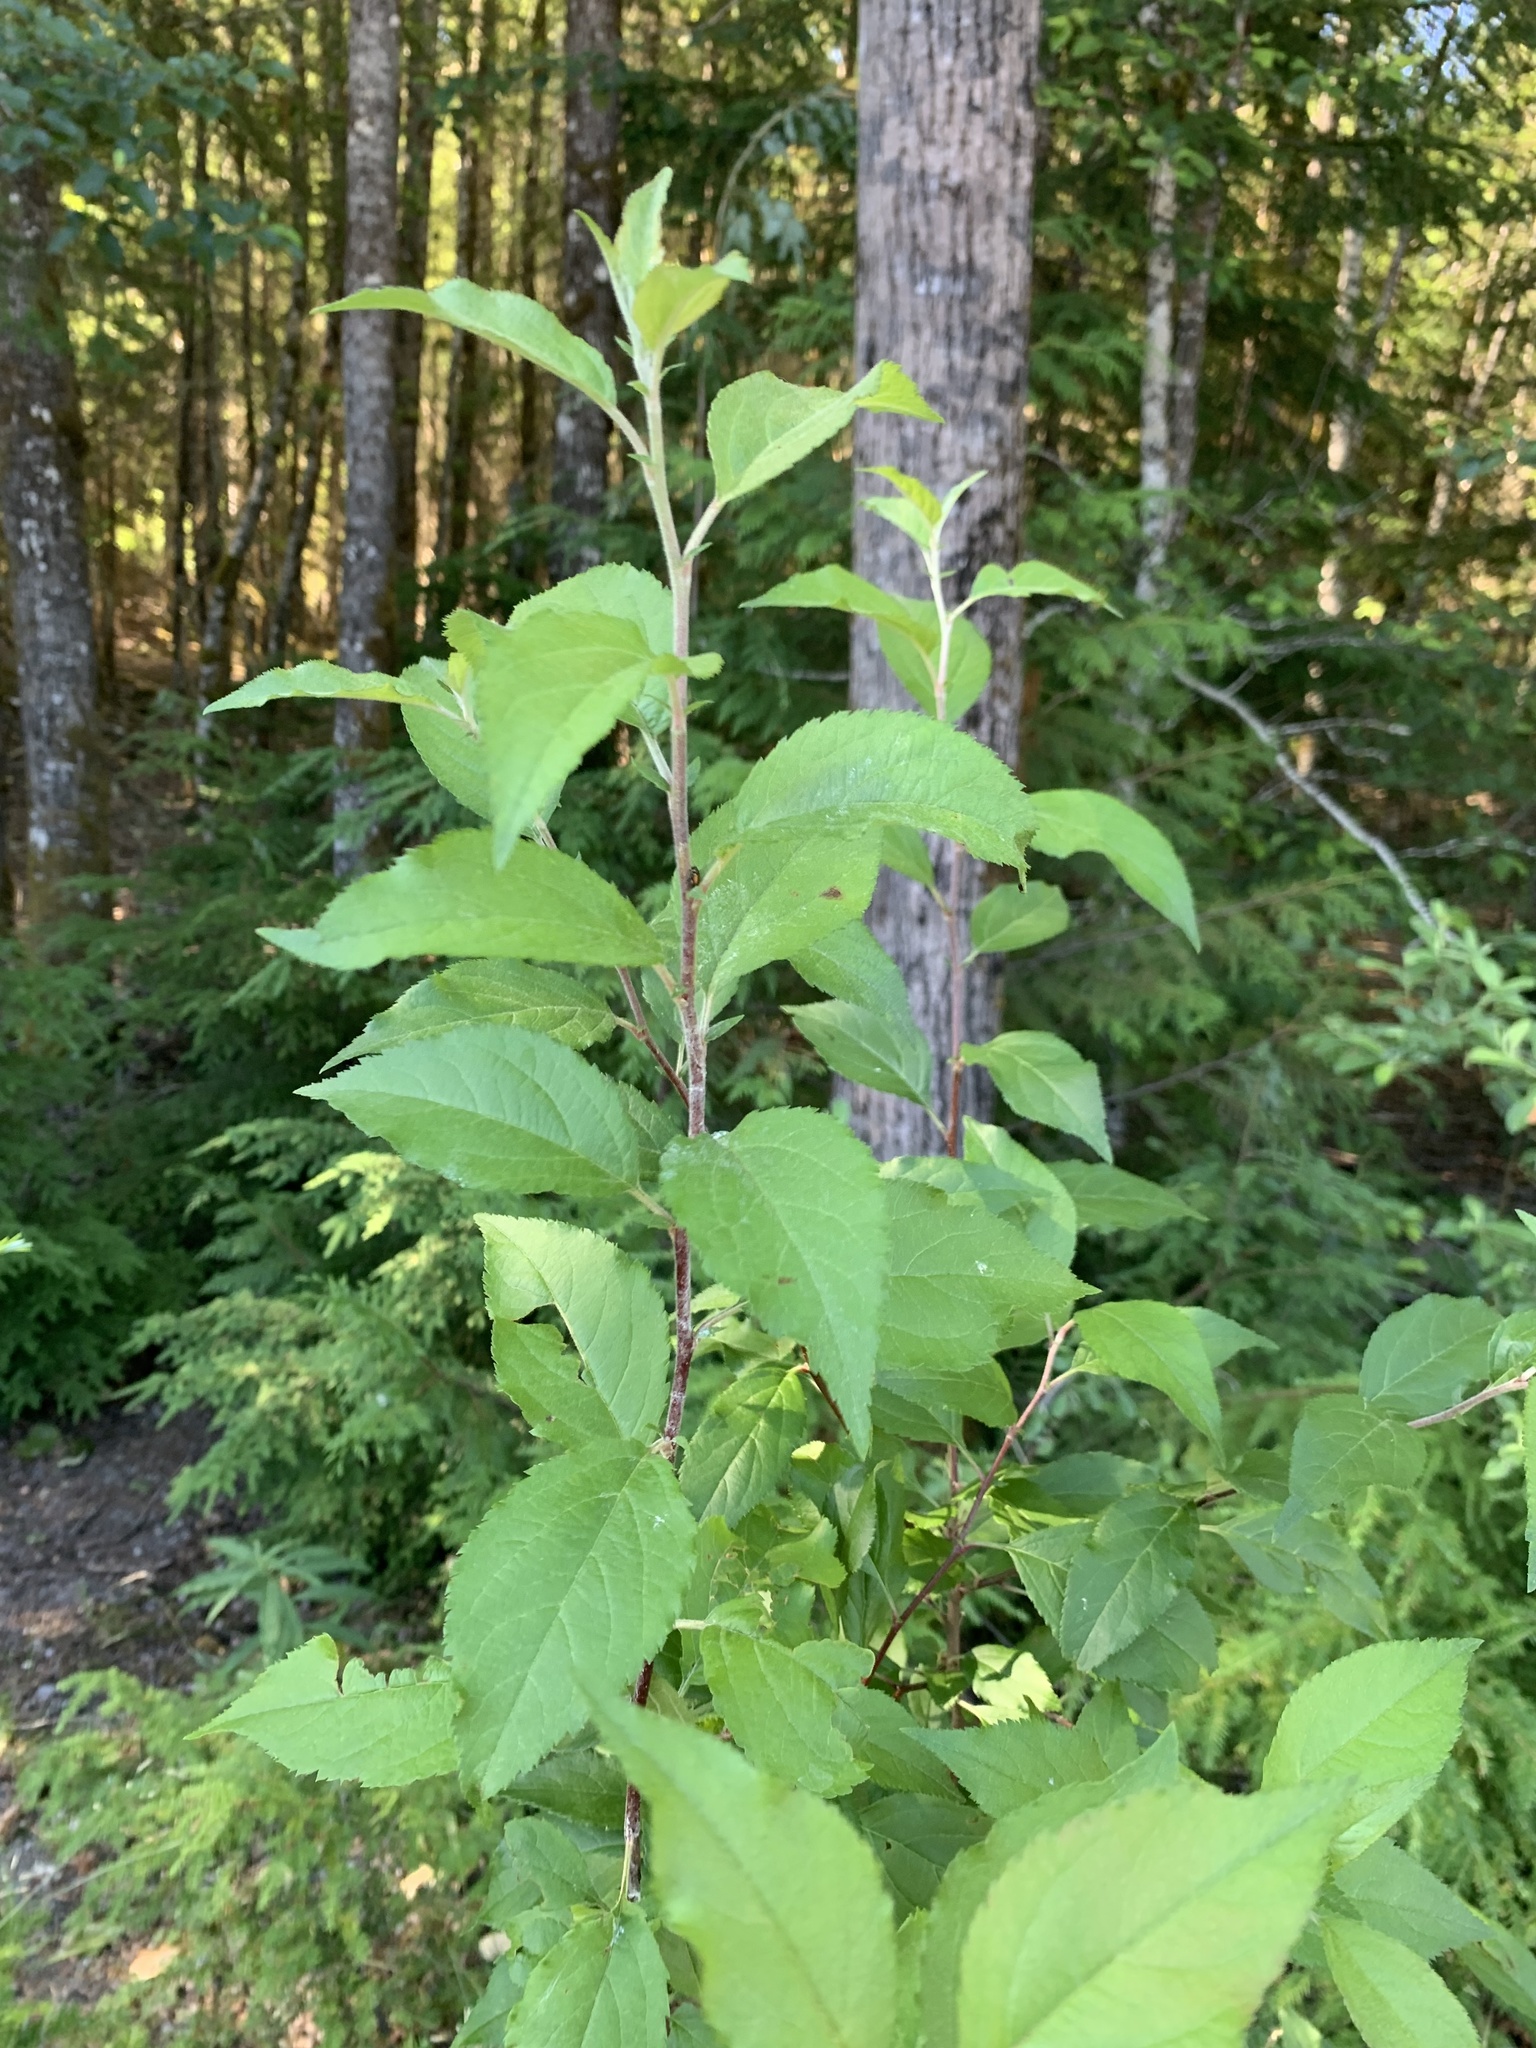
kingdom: Plantae
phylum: Tracheophyta
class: Magnoliopsida
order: Rosales
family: Rosaceae
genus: Malus
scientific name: Malus fusca
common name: Oregon crab apple
